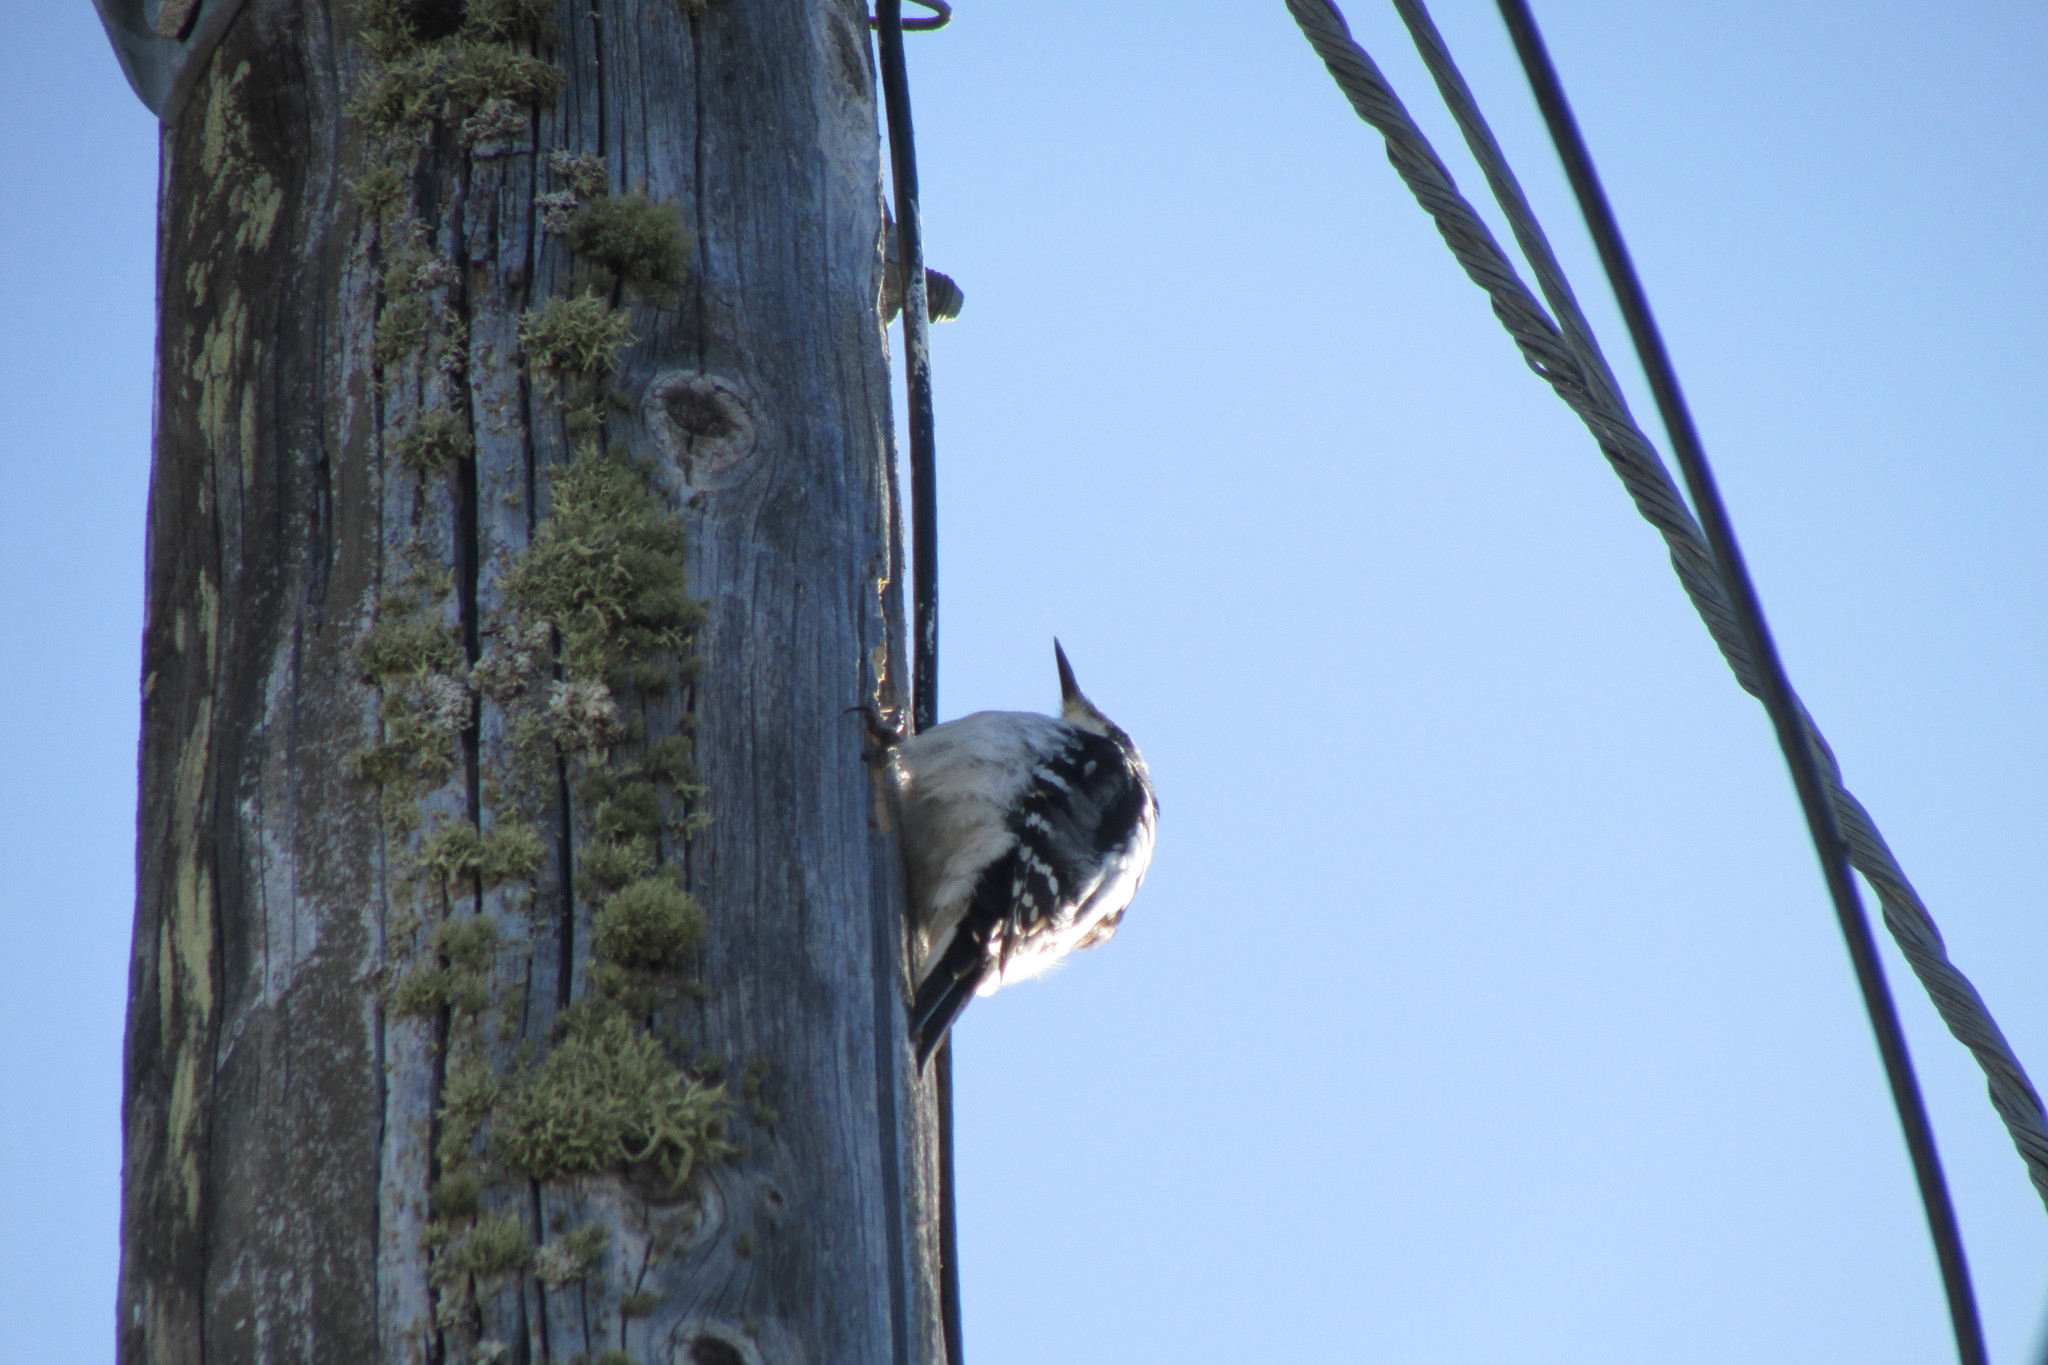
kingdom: Animalia
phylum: Chordata
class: Aves
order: Piciformes
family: Picidae
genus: Leuconotopicus
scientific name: Leuconotopicus villosus
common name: Hairy woodpecker
